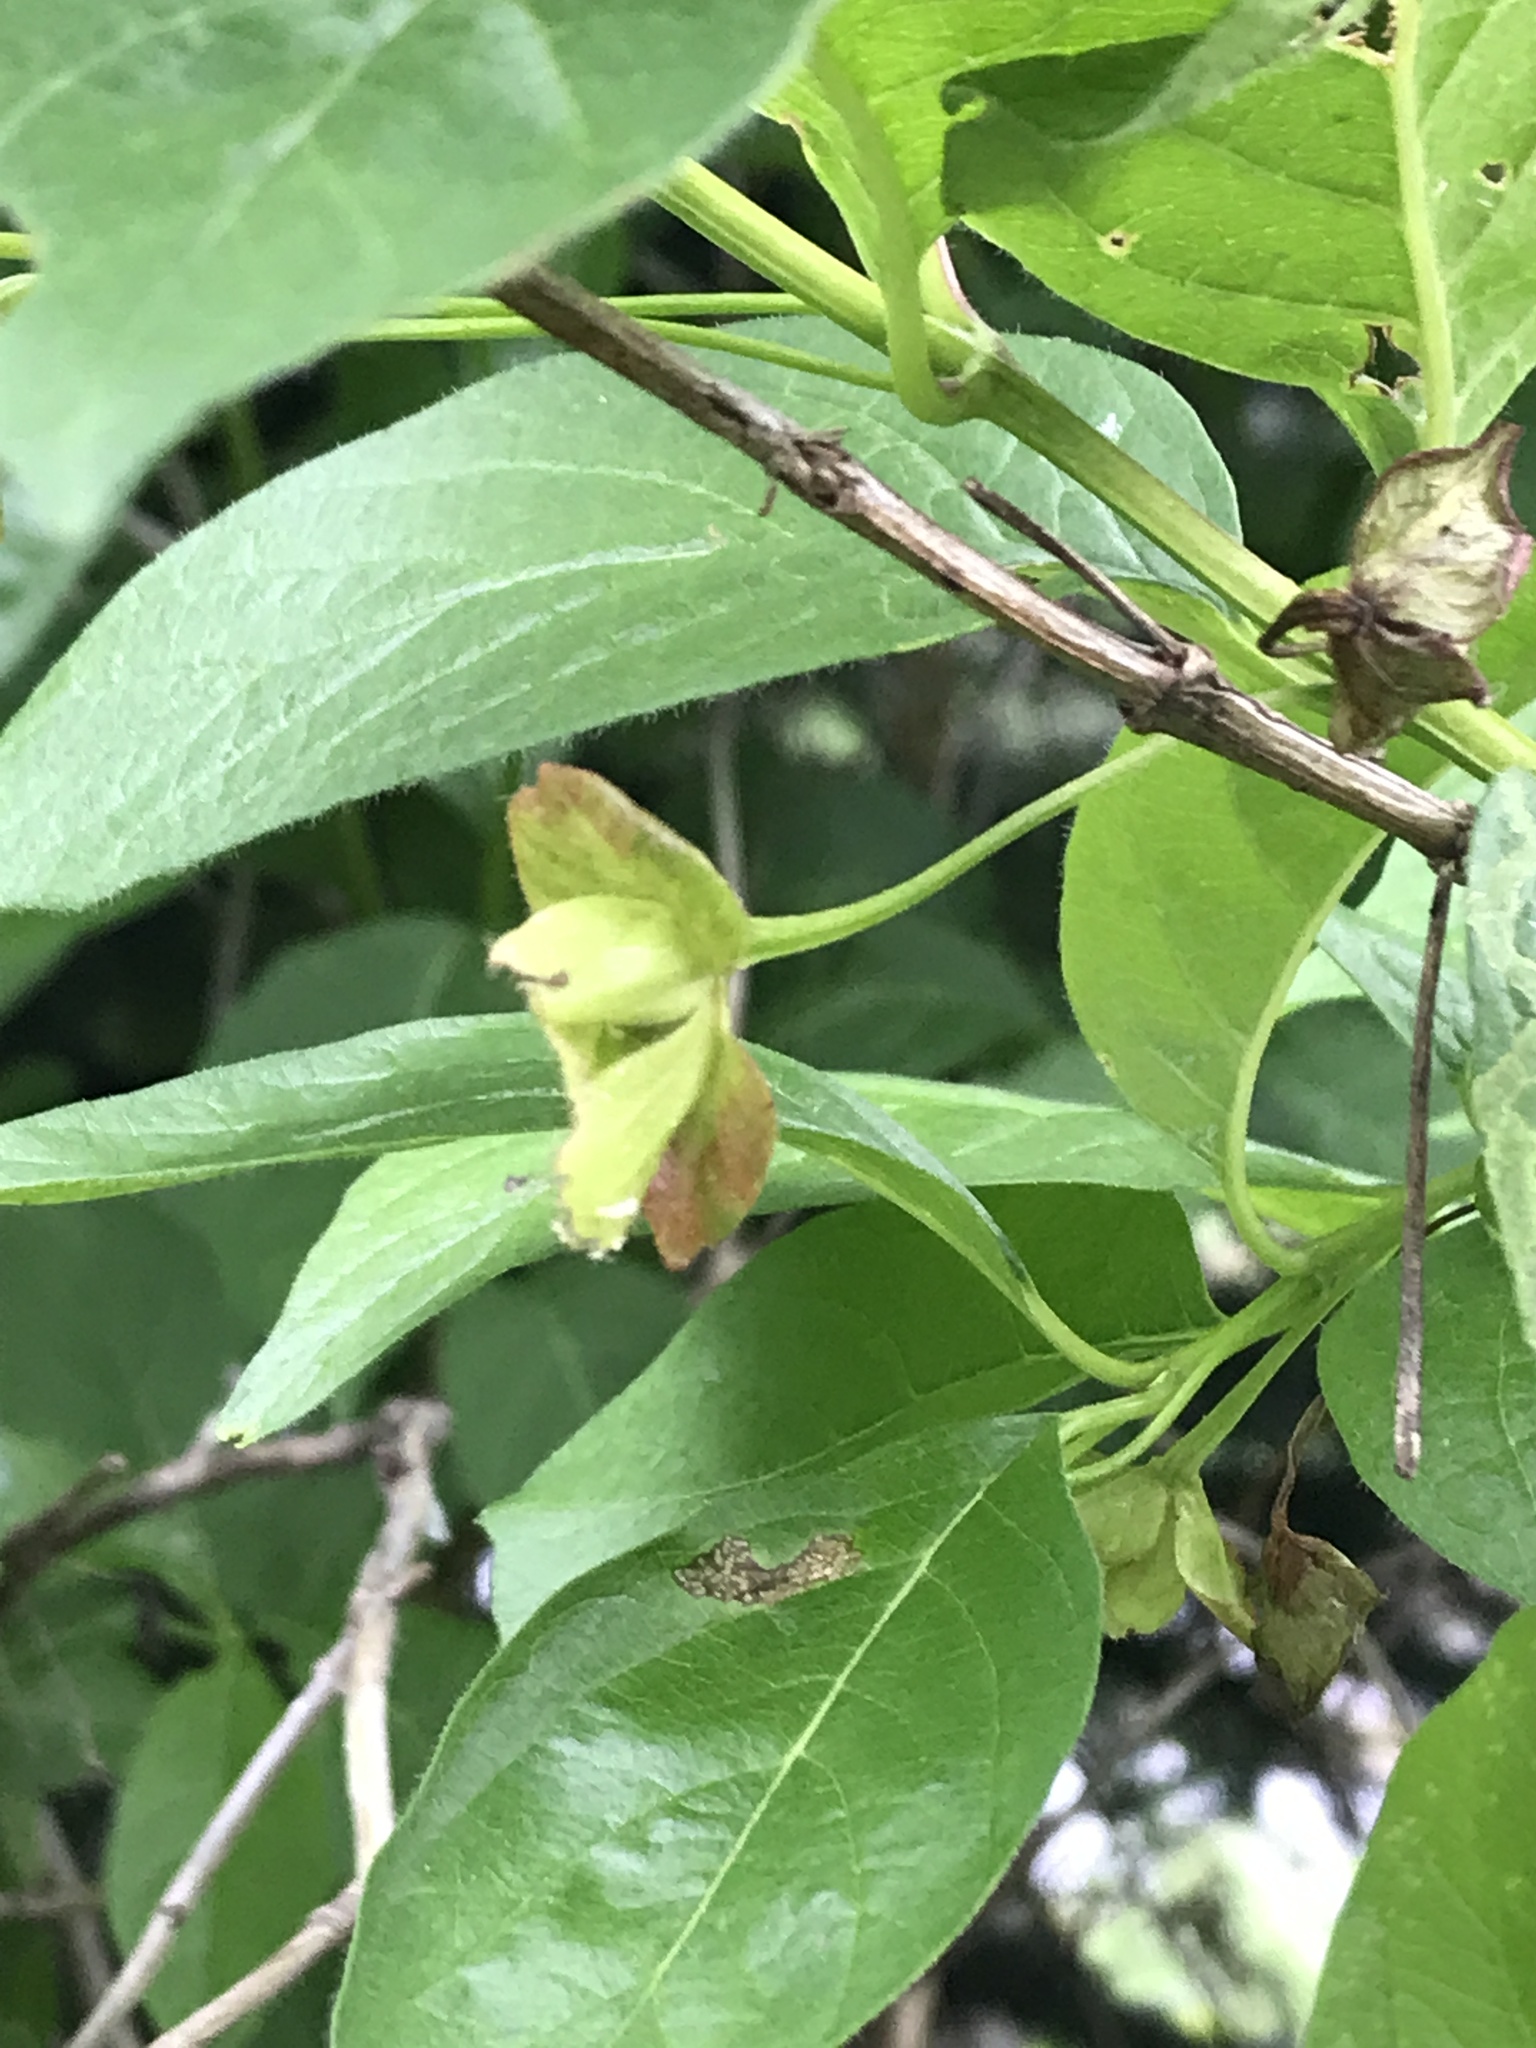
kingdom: Plantae
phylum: Tracheophyta
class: Magnoliopsida
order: Dipsacales
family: Caprifoliaceae
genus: Lonicera
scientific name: Lonicera involucrata
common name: Californian honeysuckle
